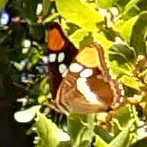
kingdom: Animalia
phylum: Arthropoda
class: Insecta
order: Lepidoptera
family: Nymphalidae
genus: Limenitis
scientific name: Limenitis bredowii
